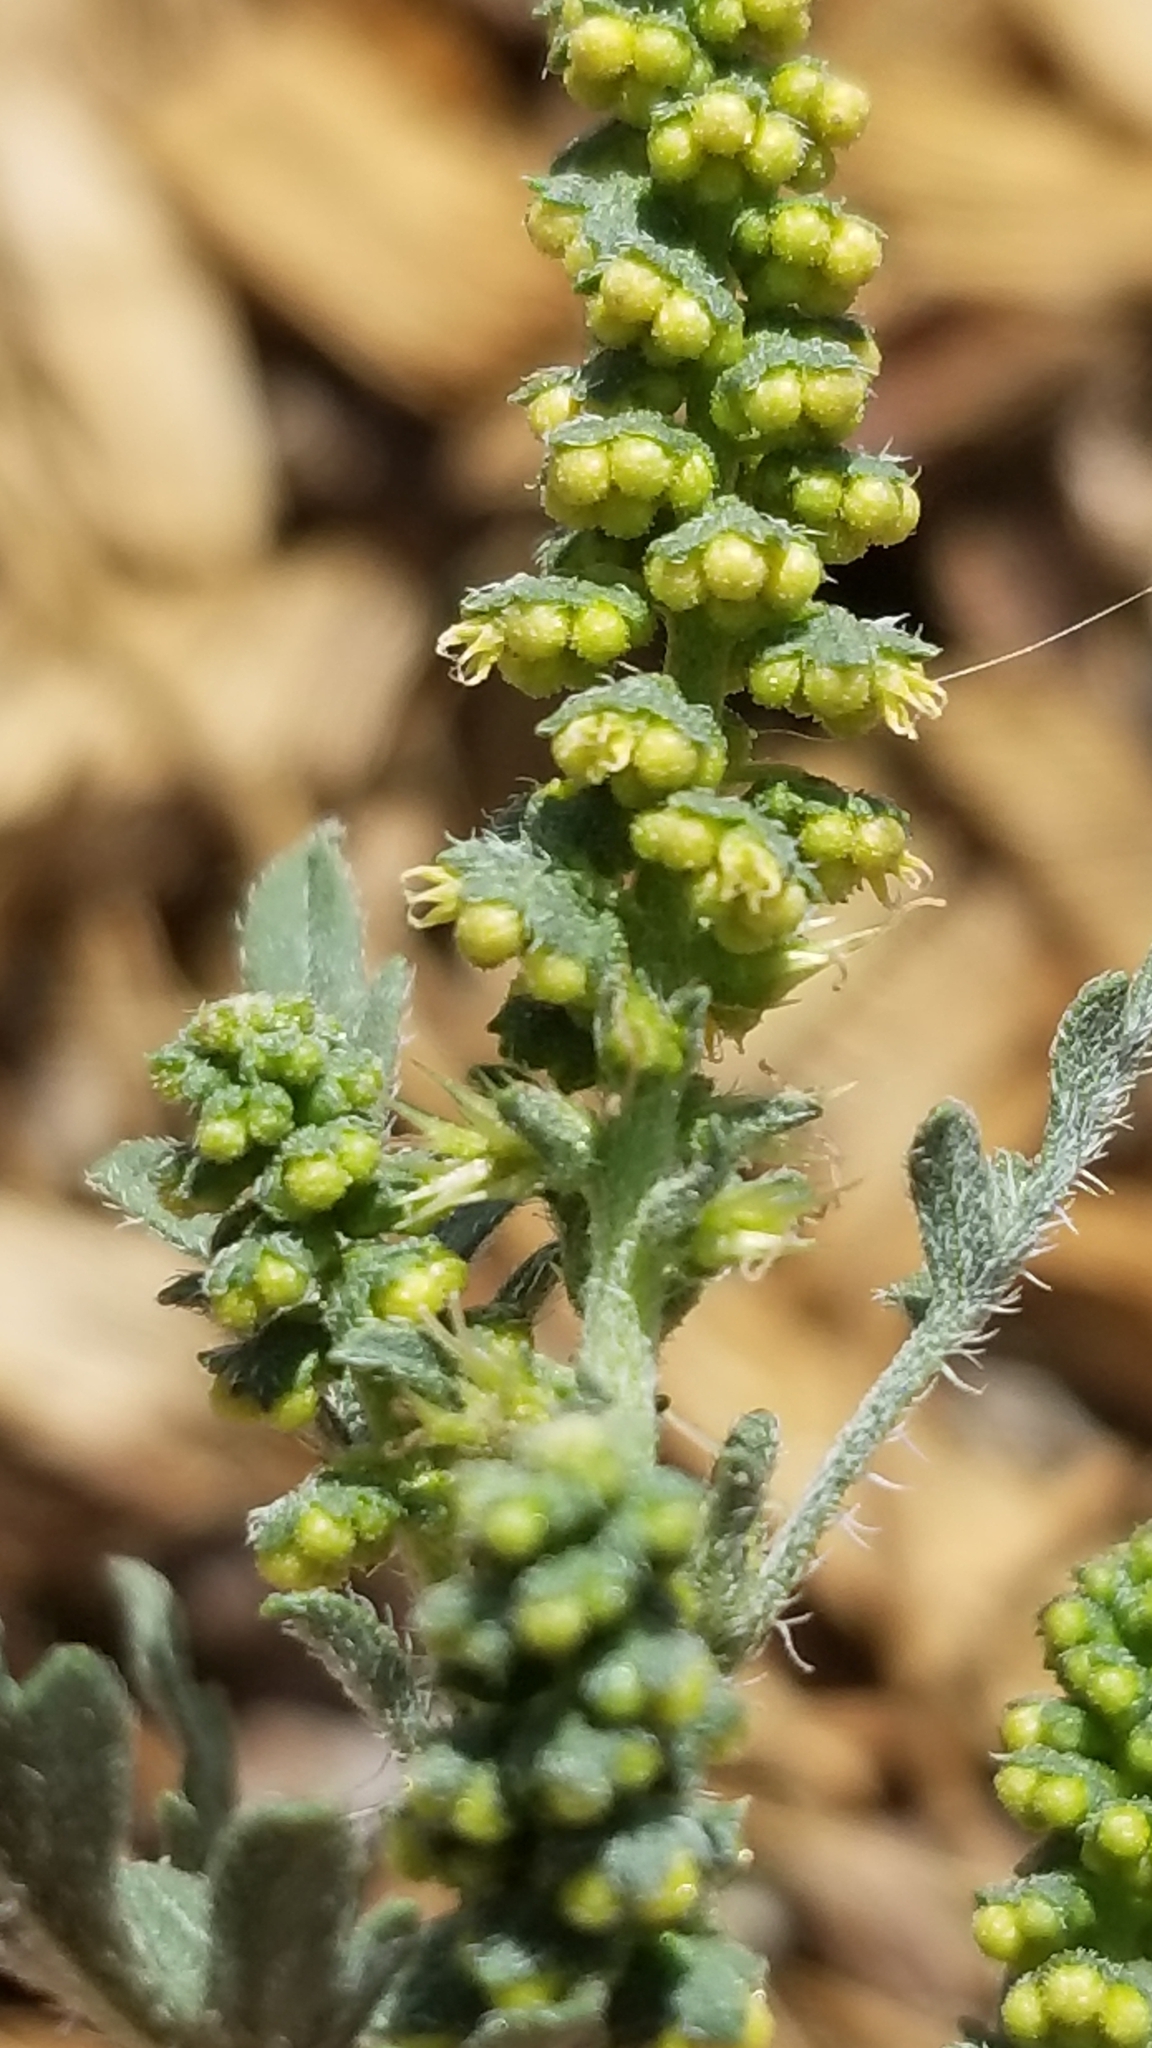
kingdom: Plantae
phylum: Tracheophyta
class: Magnoliopsida
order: Asterales
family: Asteraceae
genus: Ambrosia
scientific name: Ambrosia acanthicarpa
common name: Hooker's bur ragweed
